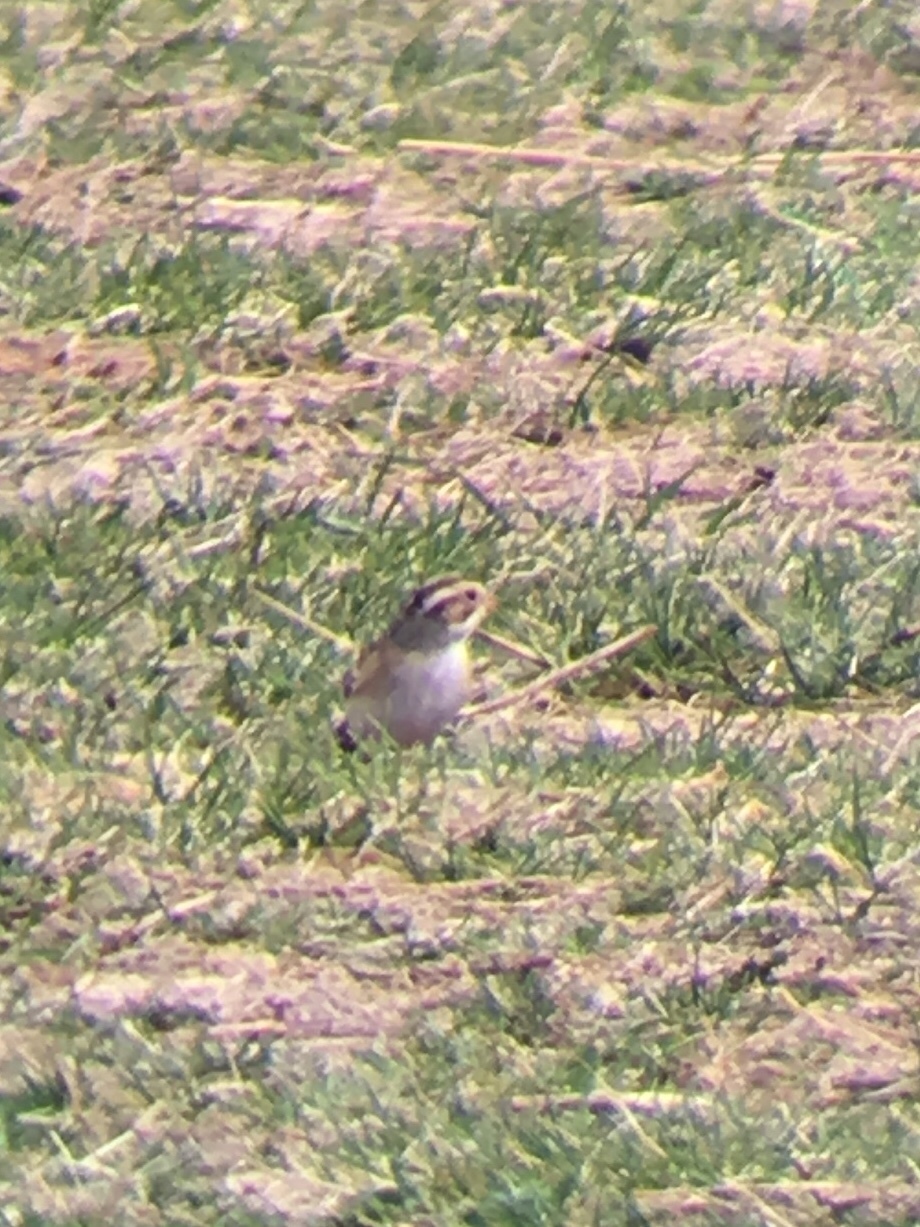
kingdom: Animalia
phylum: Chordata
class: Aves
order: Passeriformes
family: Passerellidae
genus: Spizella
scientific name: Spizella pallida
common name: Clay-colored sparrow
